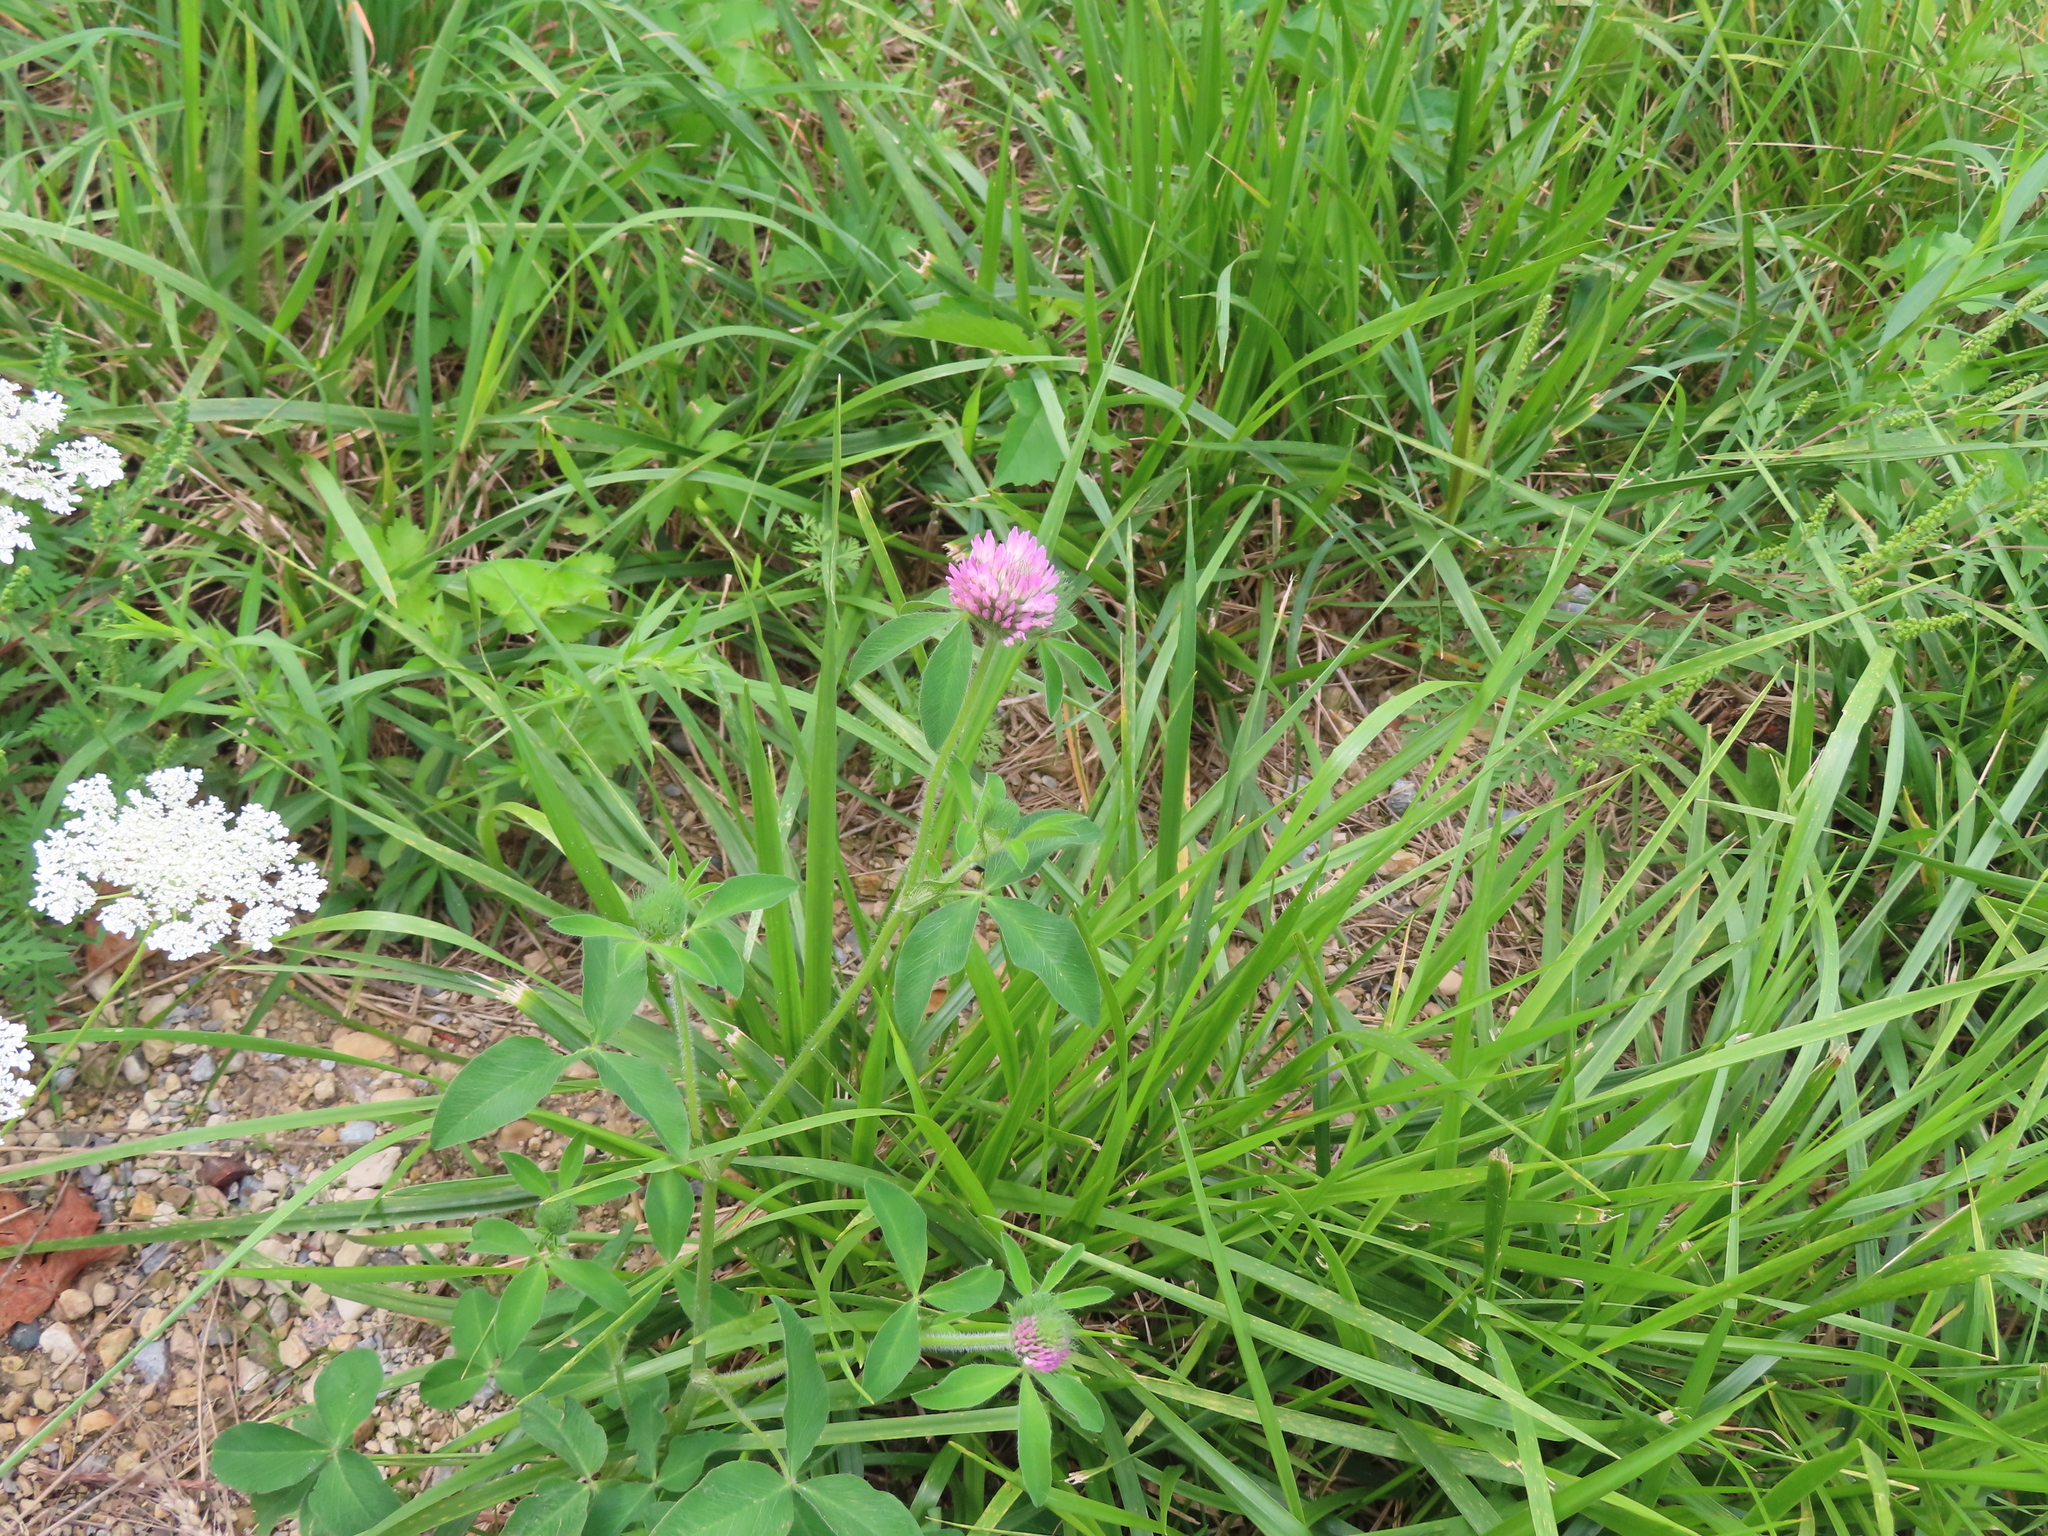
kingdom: Plantae
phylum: Tracheophyta
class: Magnoliopsida
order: Fabales
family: Fabaceae
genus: Trifolium
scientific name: Trifolium pratense
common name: Red clover
